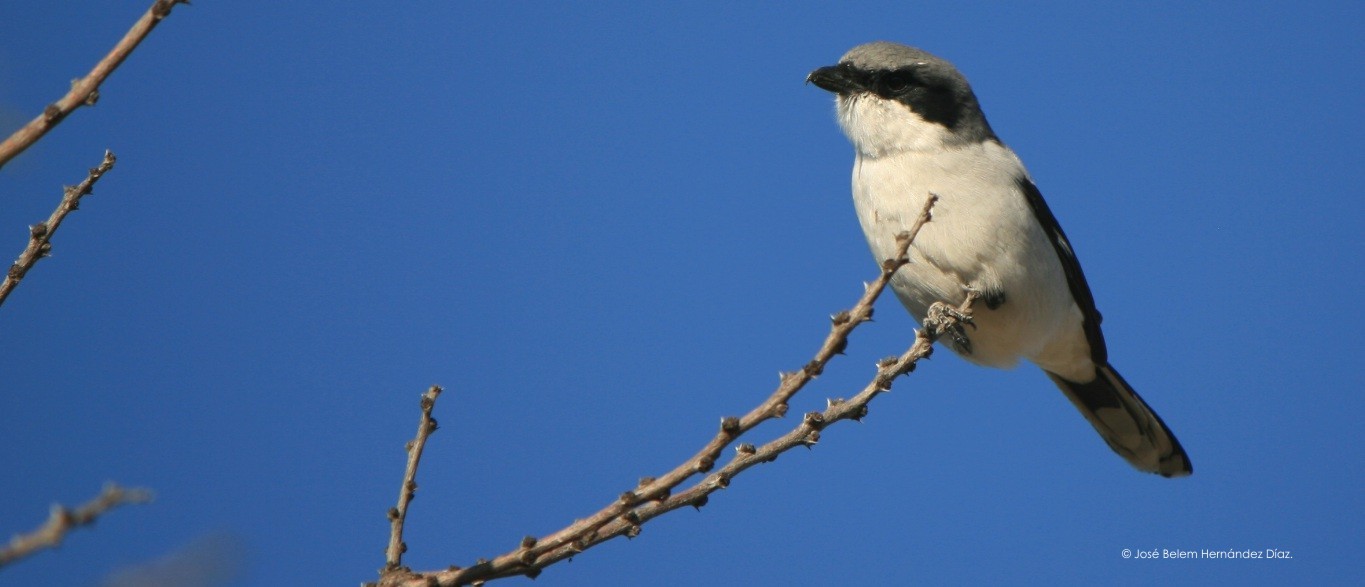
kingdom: Animalia
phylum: Chordata
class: Aves
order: Passeriformes
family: Laniidae
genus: Lanius
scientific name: Lanius ludovicianus
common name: Loggerhead shrike
